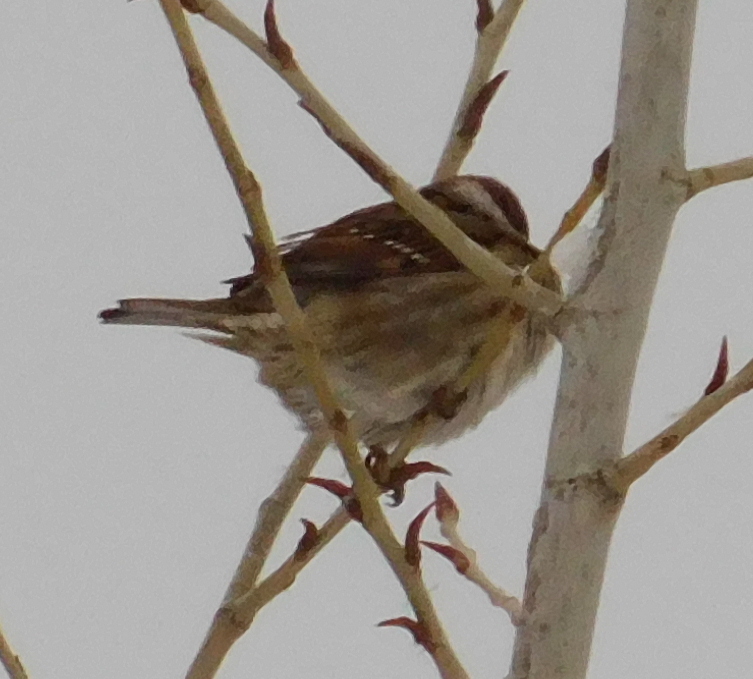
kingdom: Animalia
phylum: Chordata
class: Aves
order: Passeriformes
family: Passeridae
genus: Passer
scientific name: Passer montanus
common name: Eurasian tree sparrow
